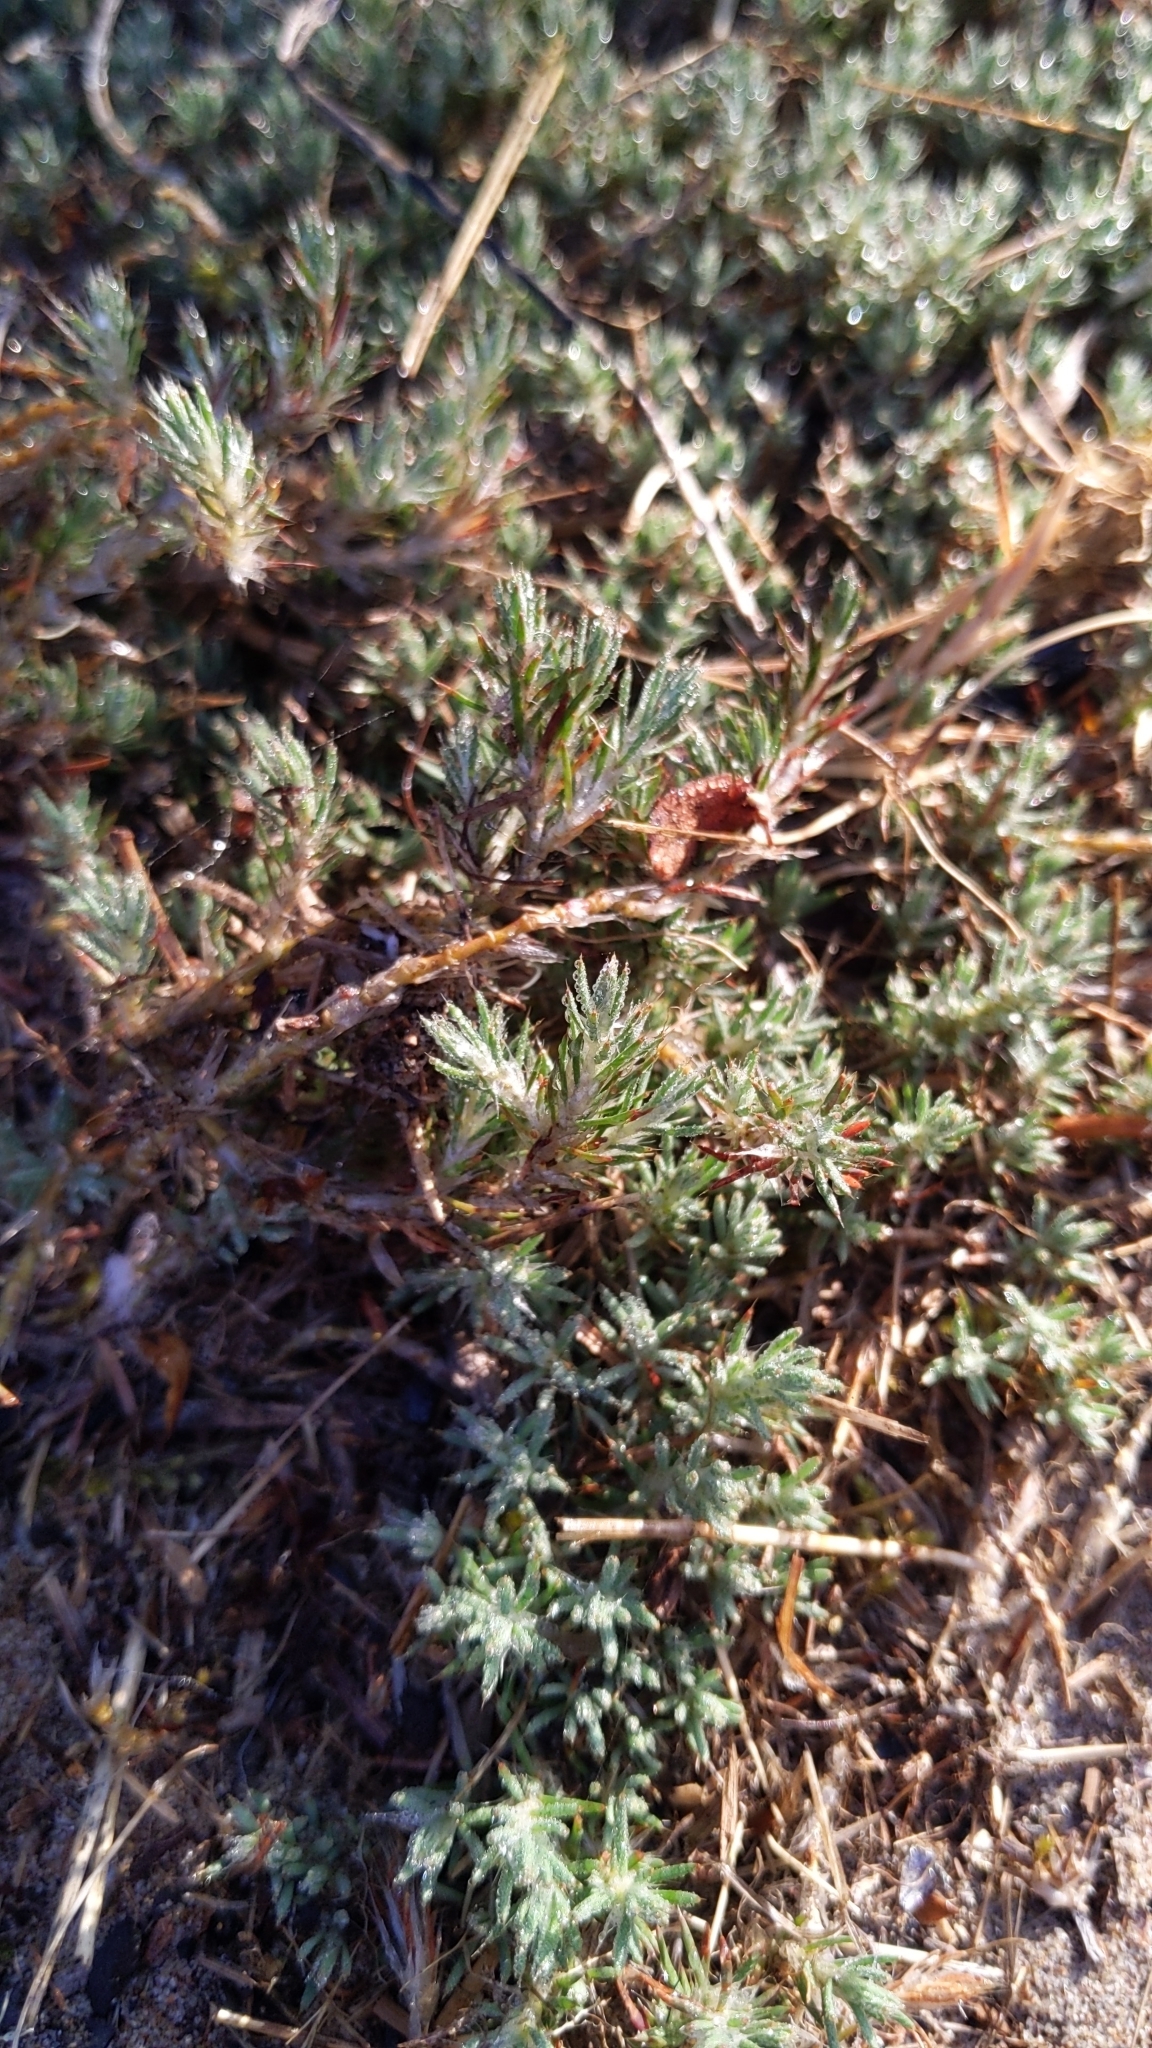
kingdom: Plantae
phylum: Tracheophyta
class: Magnoliopsida
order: Caryophyllales
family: Caryophyllaceae
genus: Cardionema
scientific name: Cardionema ramosissima
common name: Sandcarpet
